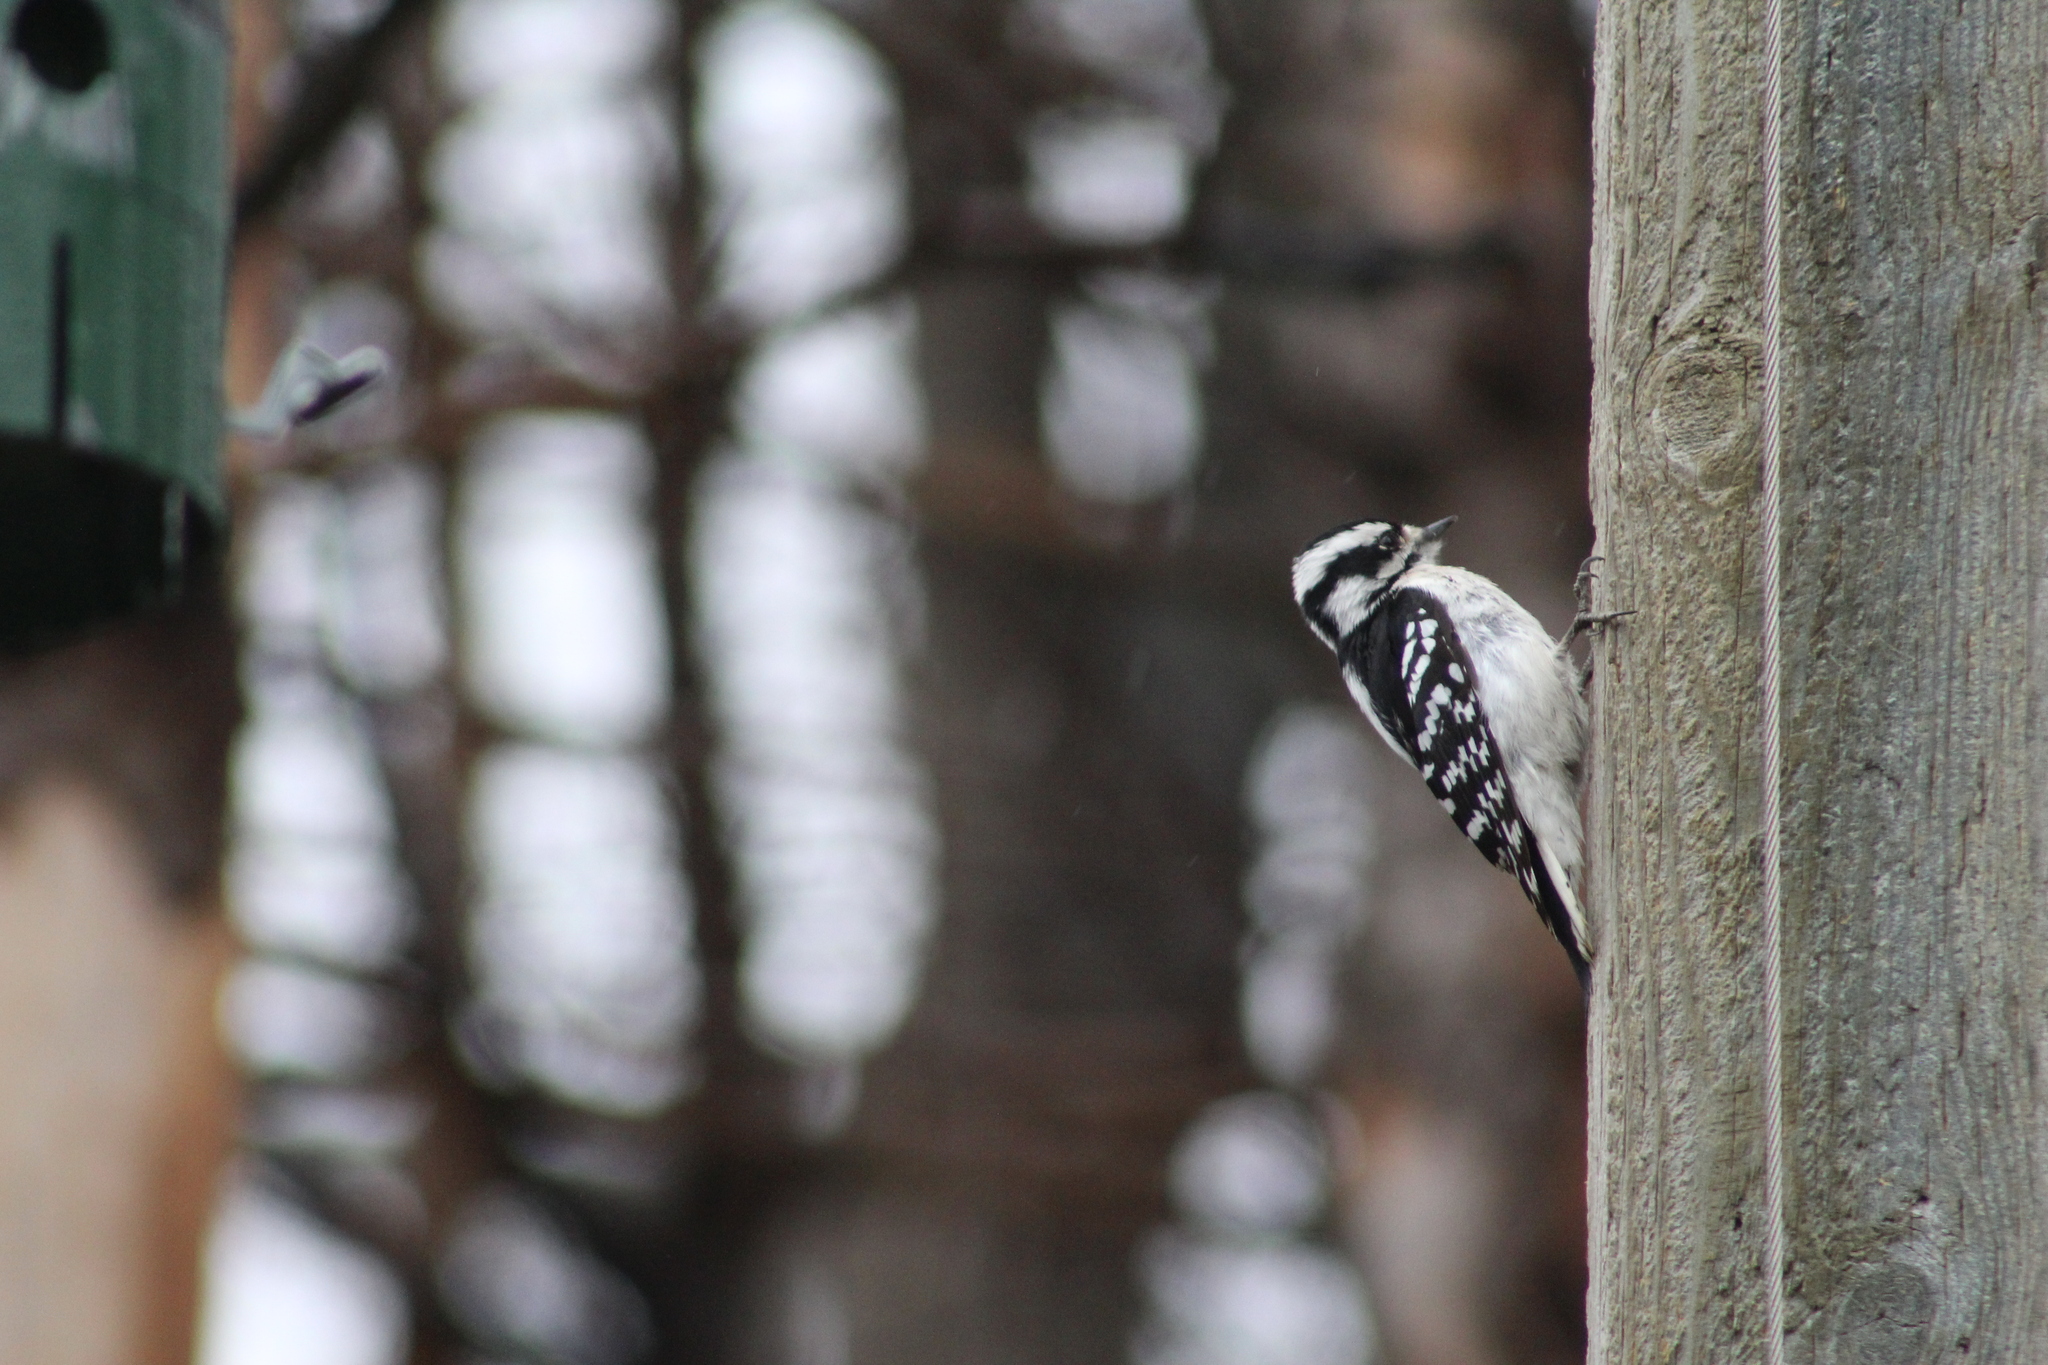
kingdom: Animalia
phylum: Chordata
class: Aves
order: Piciformes
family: Picidae
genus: Dryobates
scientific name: Dryobates pubescens
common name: Downy woodpecker
